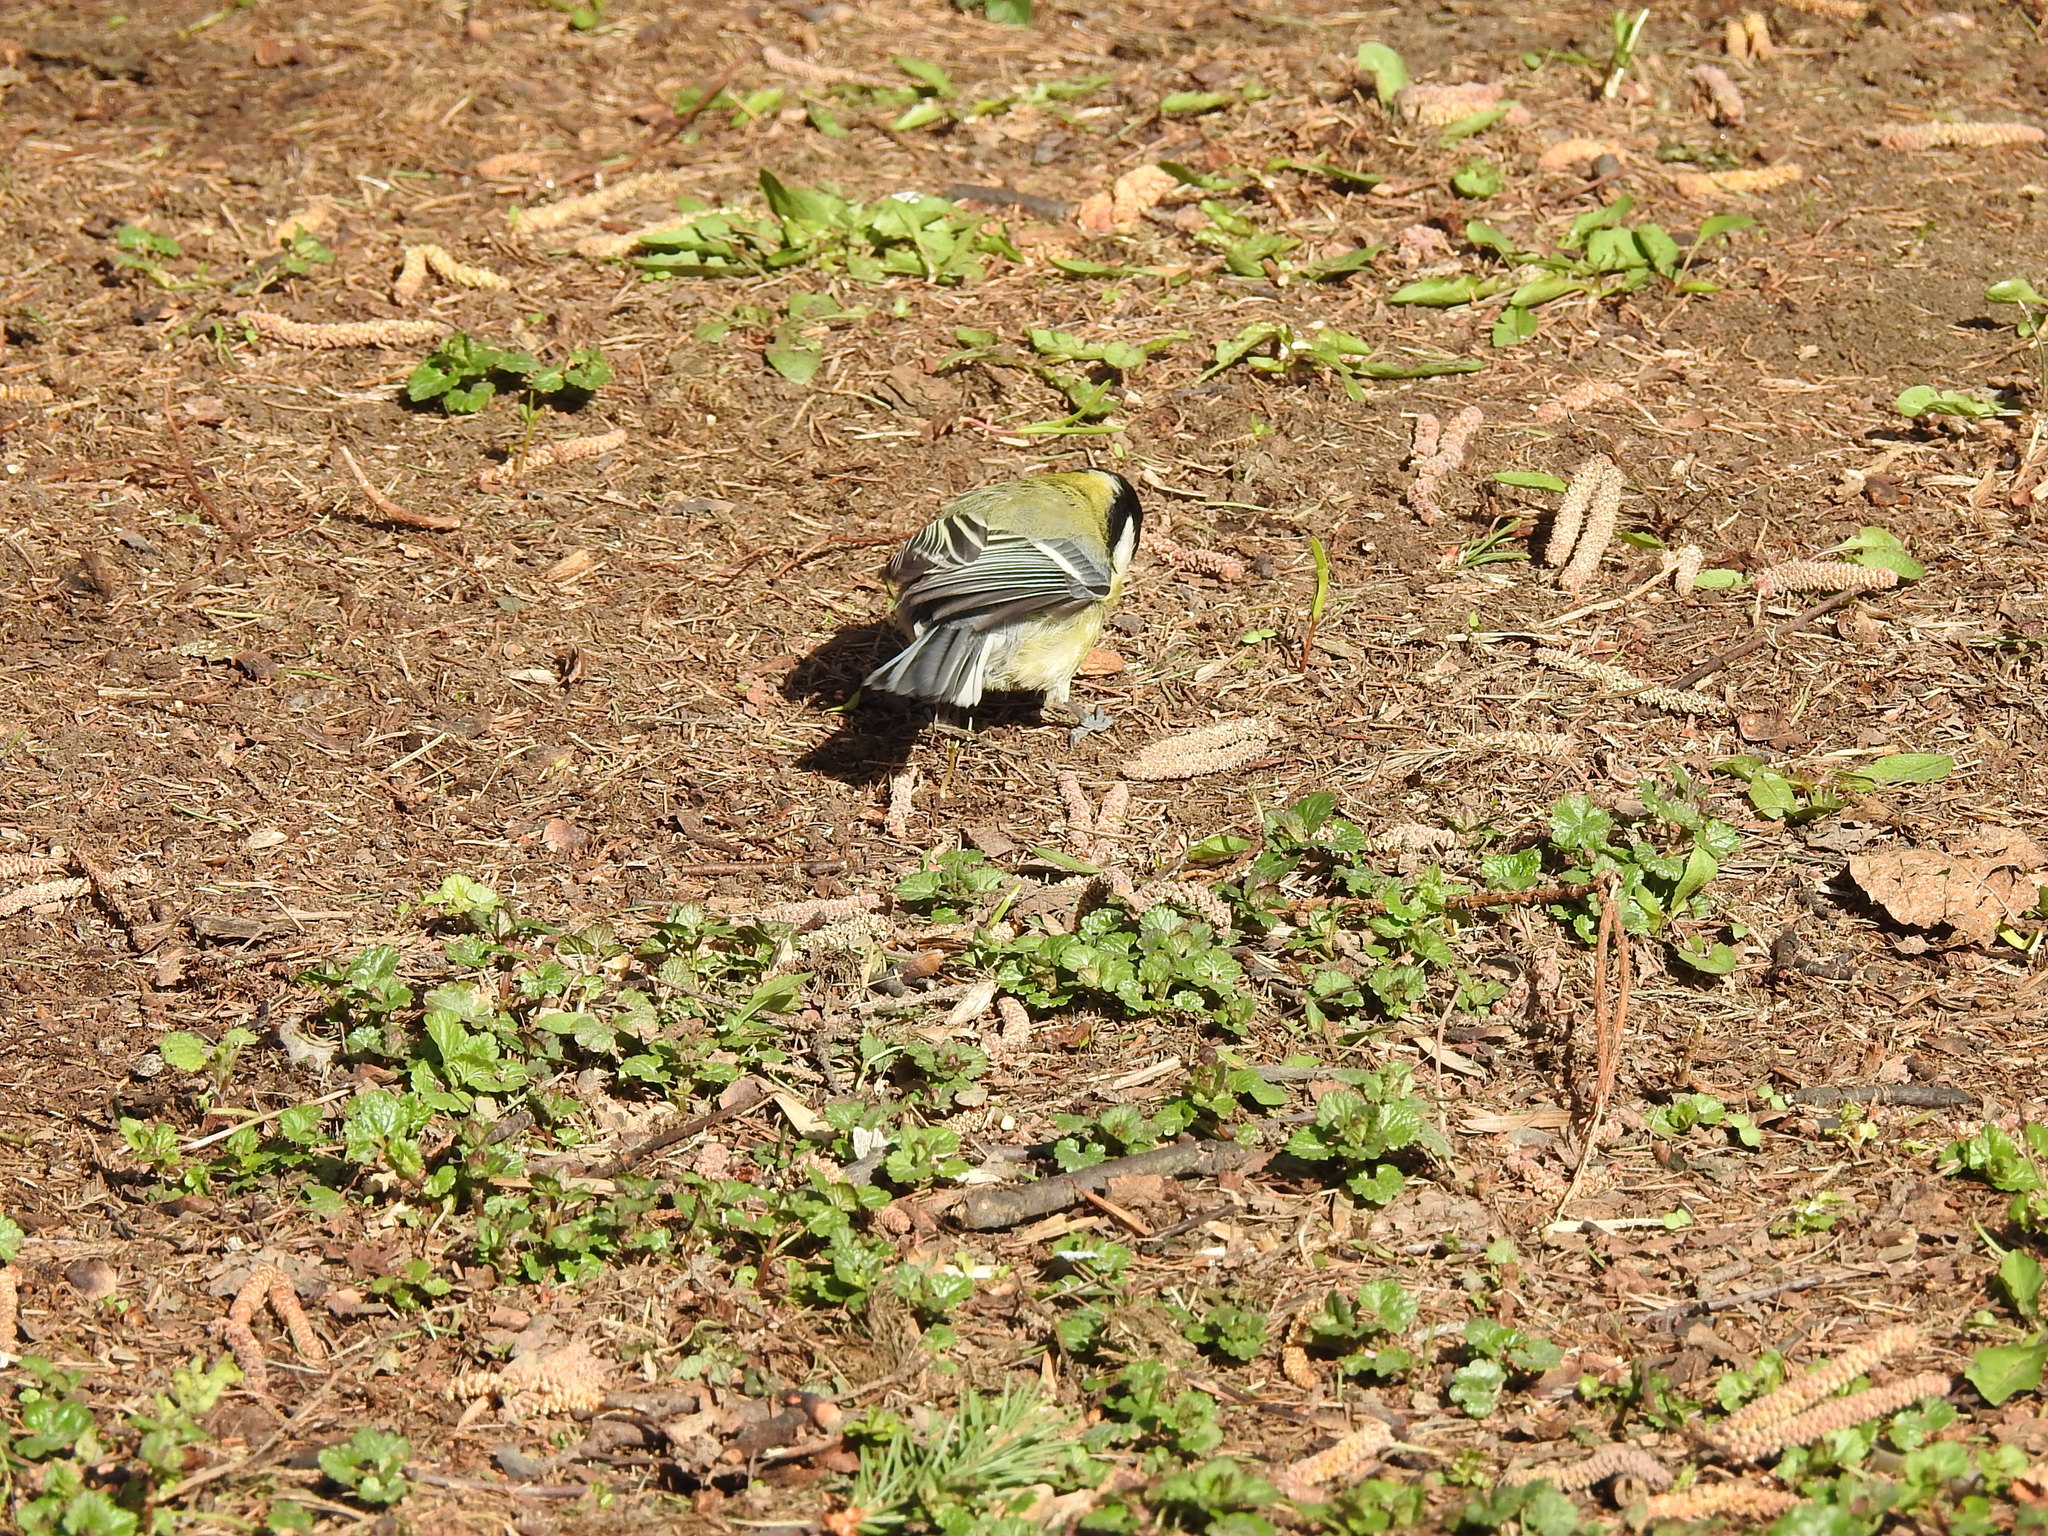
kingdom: Animalia
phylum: Chordata
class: Aves
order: Passeriformes
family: Paridae
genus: Parus
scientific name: Parus major
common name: Great tit
